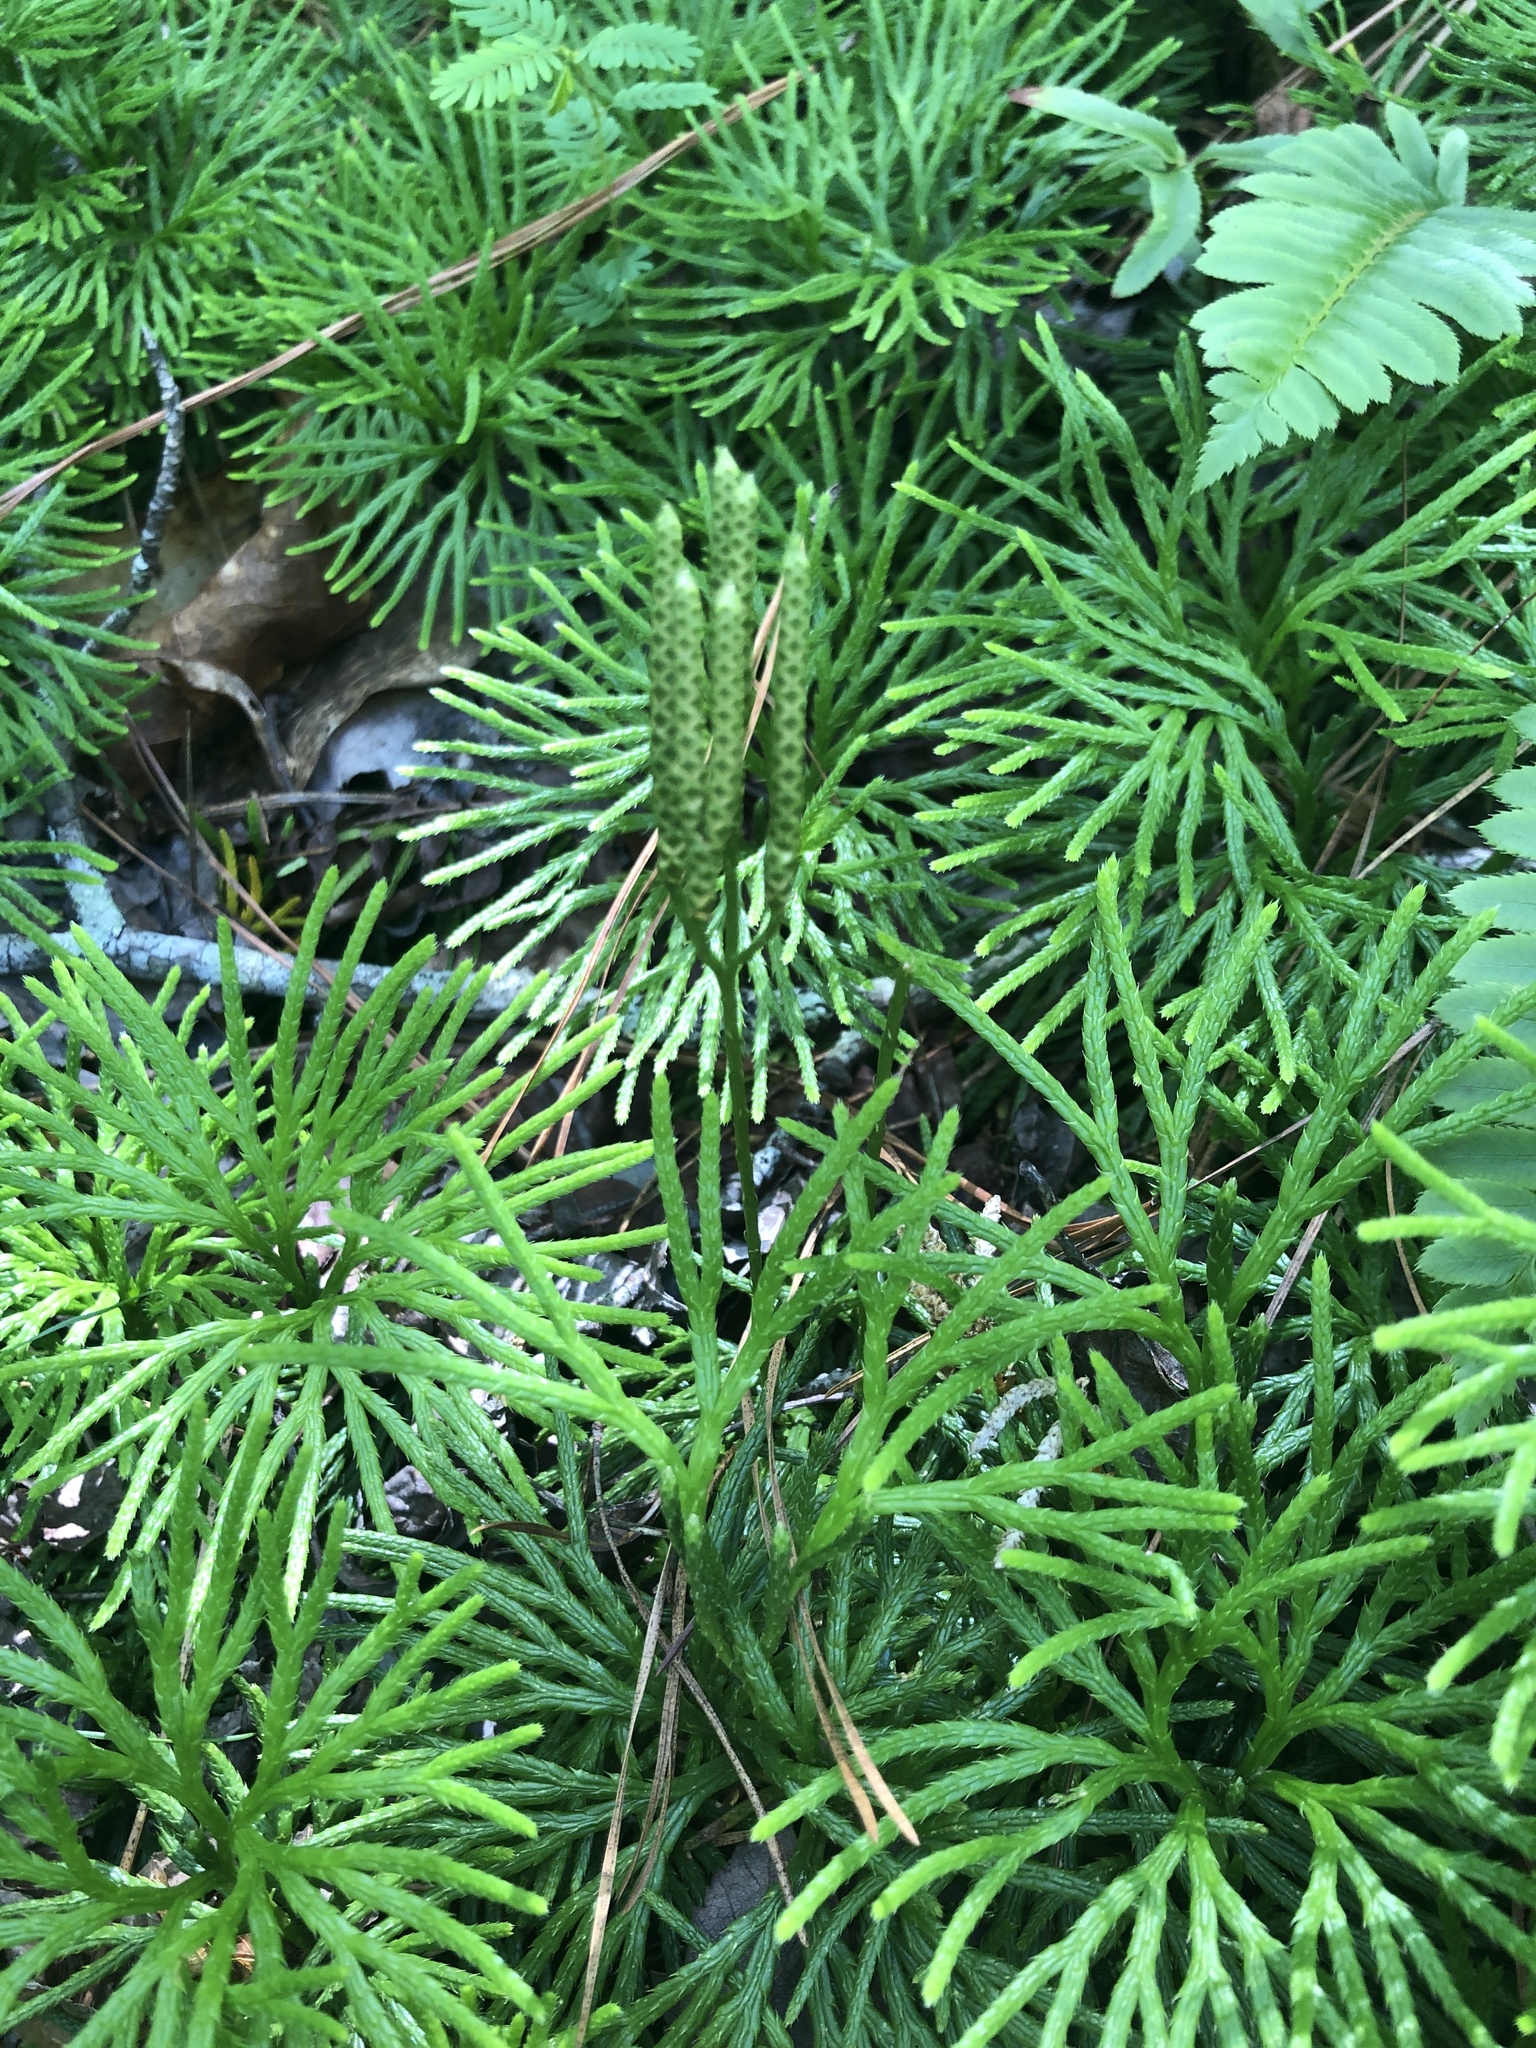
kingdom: Plantae
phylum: Tracheophyta
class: Lycopodiopsida
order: Lycopodiales
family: Lycopodiaceae
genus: Diphasiastrum
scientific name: Diphasiastrum digitatum
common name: Southern running-pine
